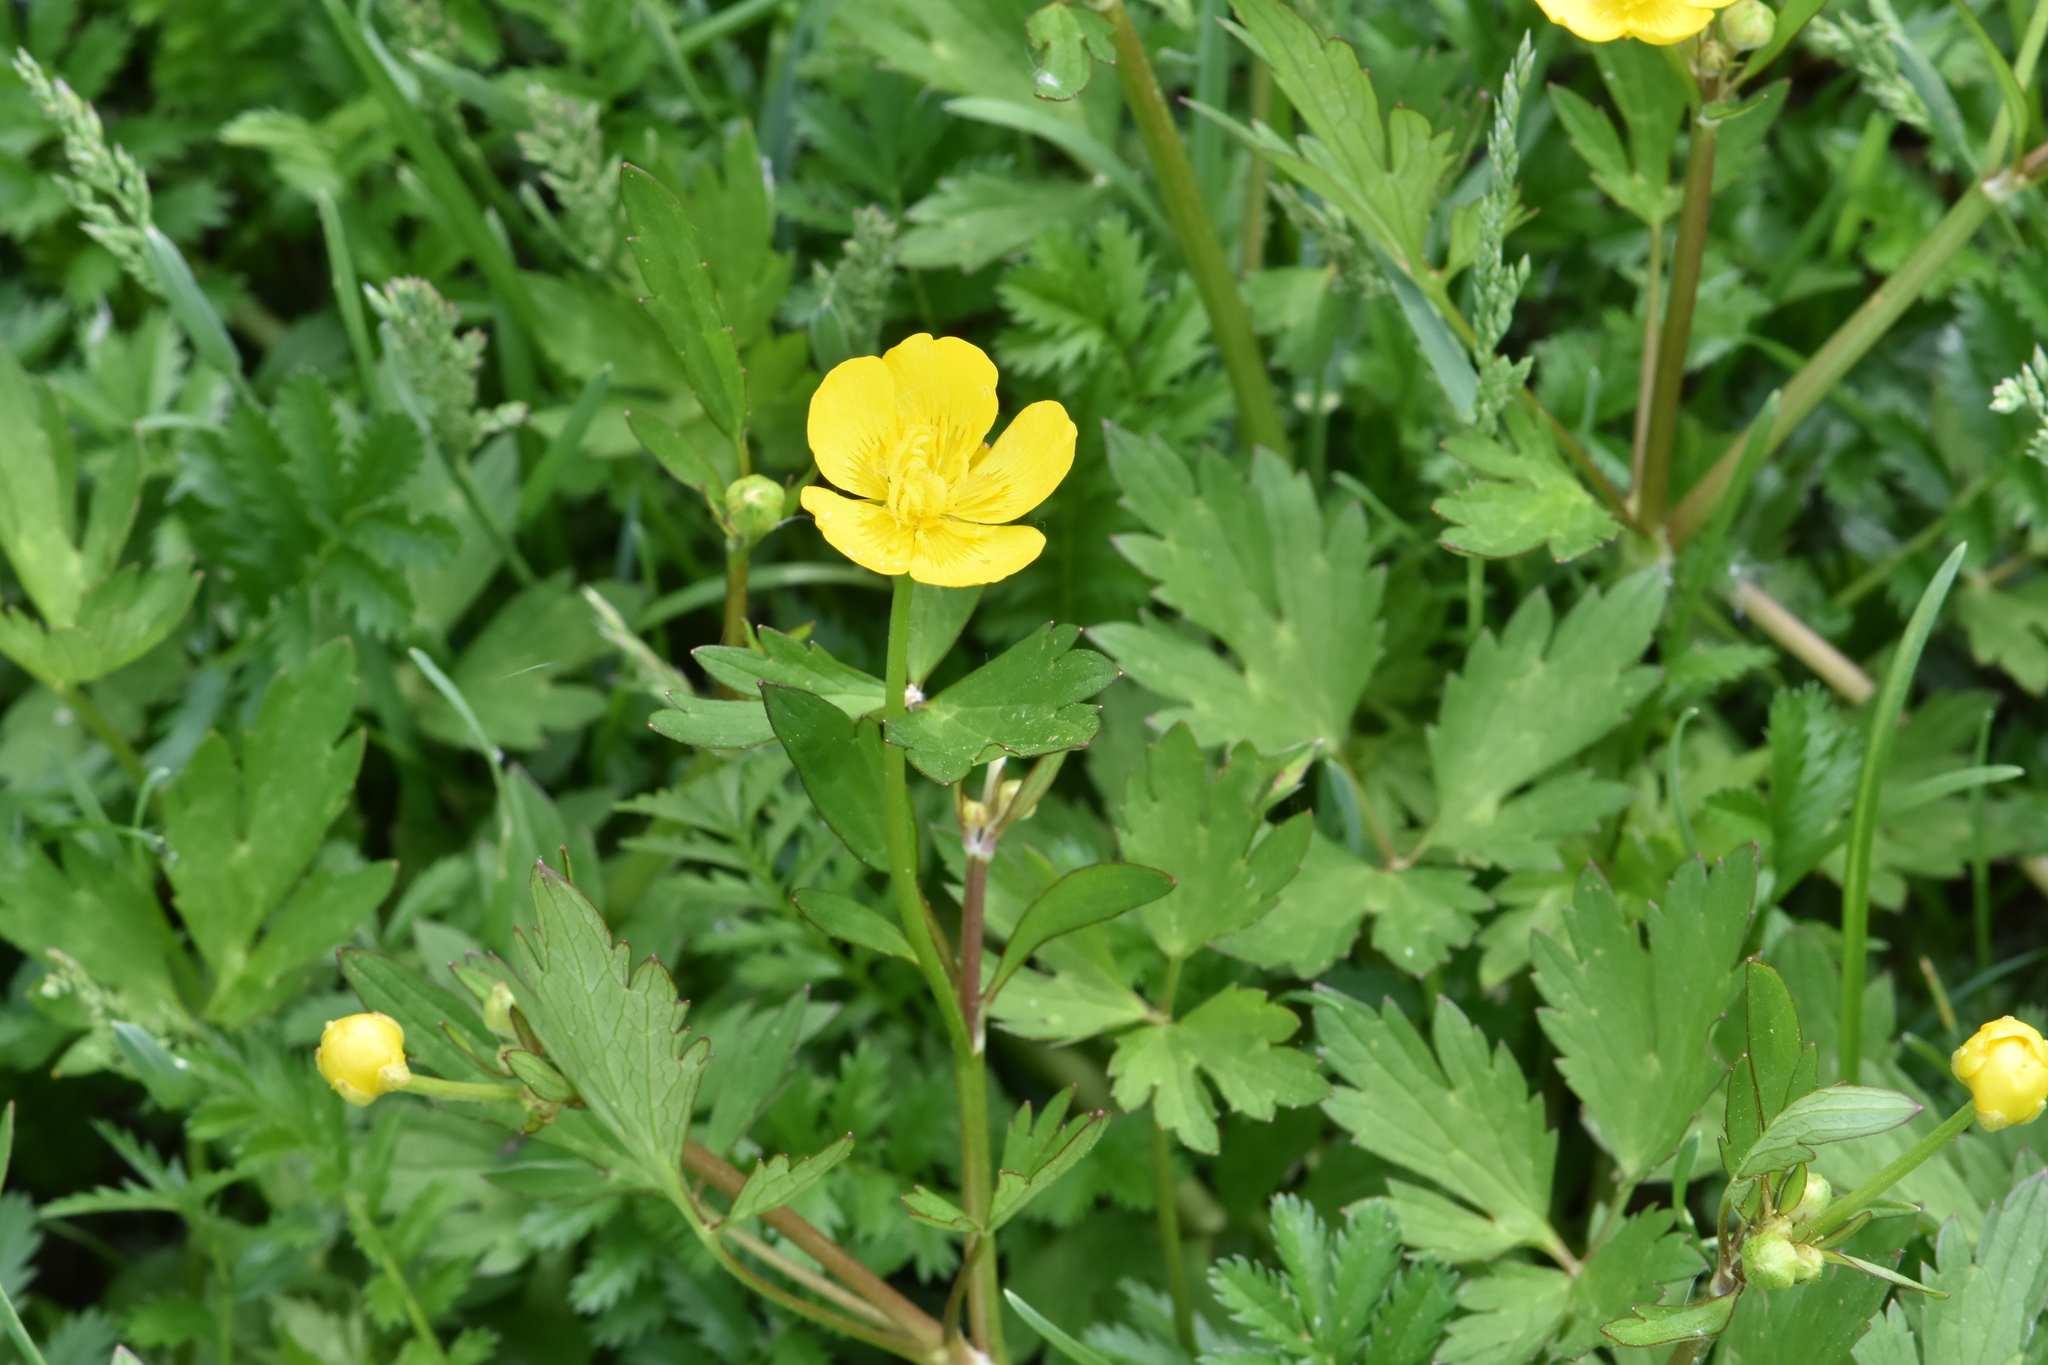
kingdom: Plantae
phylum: Tracheophyta
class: Magnoliopsida
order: Ranunculales
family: Ranunculaceae
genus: Ranunculus
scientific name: Ranunculus repens
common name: Creeping buttercup
